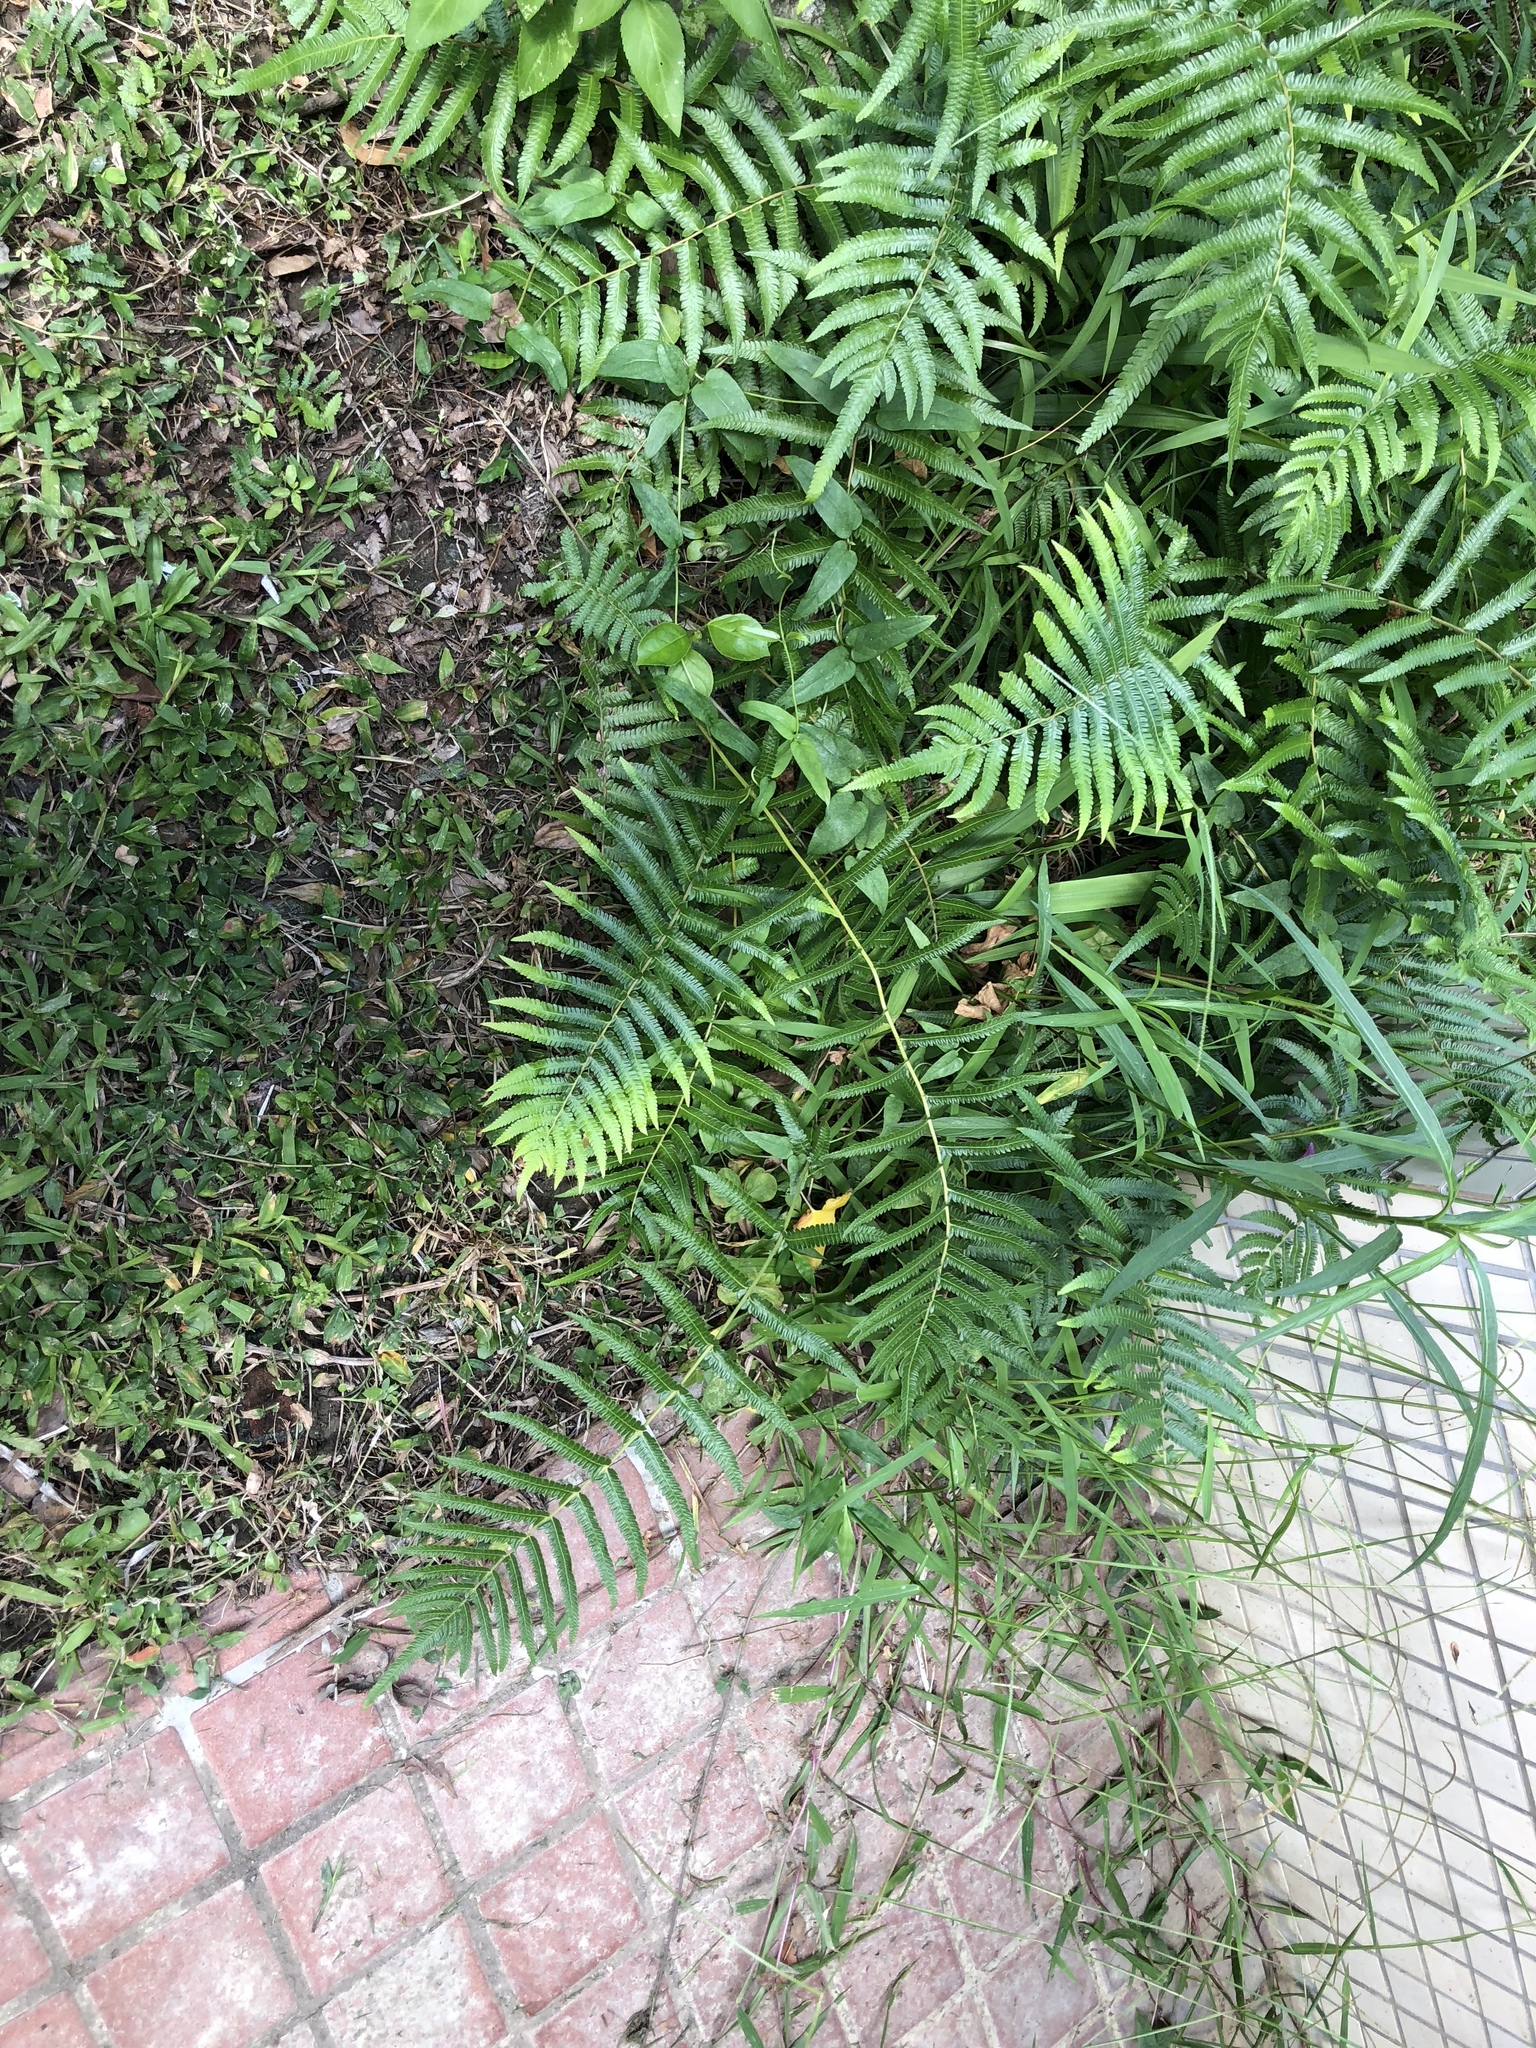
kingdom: Plantae
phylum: Tracheophyta
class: Polypodiopsida
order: Polypodiales
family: Thelypteridaceae
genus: Christella
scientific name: Christella acuminata
